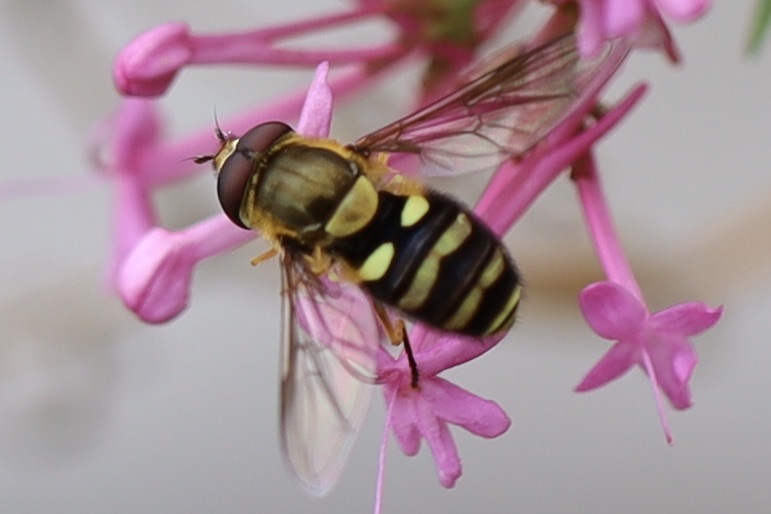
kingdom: Animalia
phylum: Arthropoda
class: Insecta
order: Diptera
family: Syrphidae
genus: Syrphus
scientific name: Syrphus opinator
